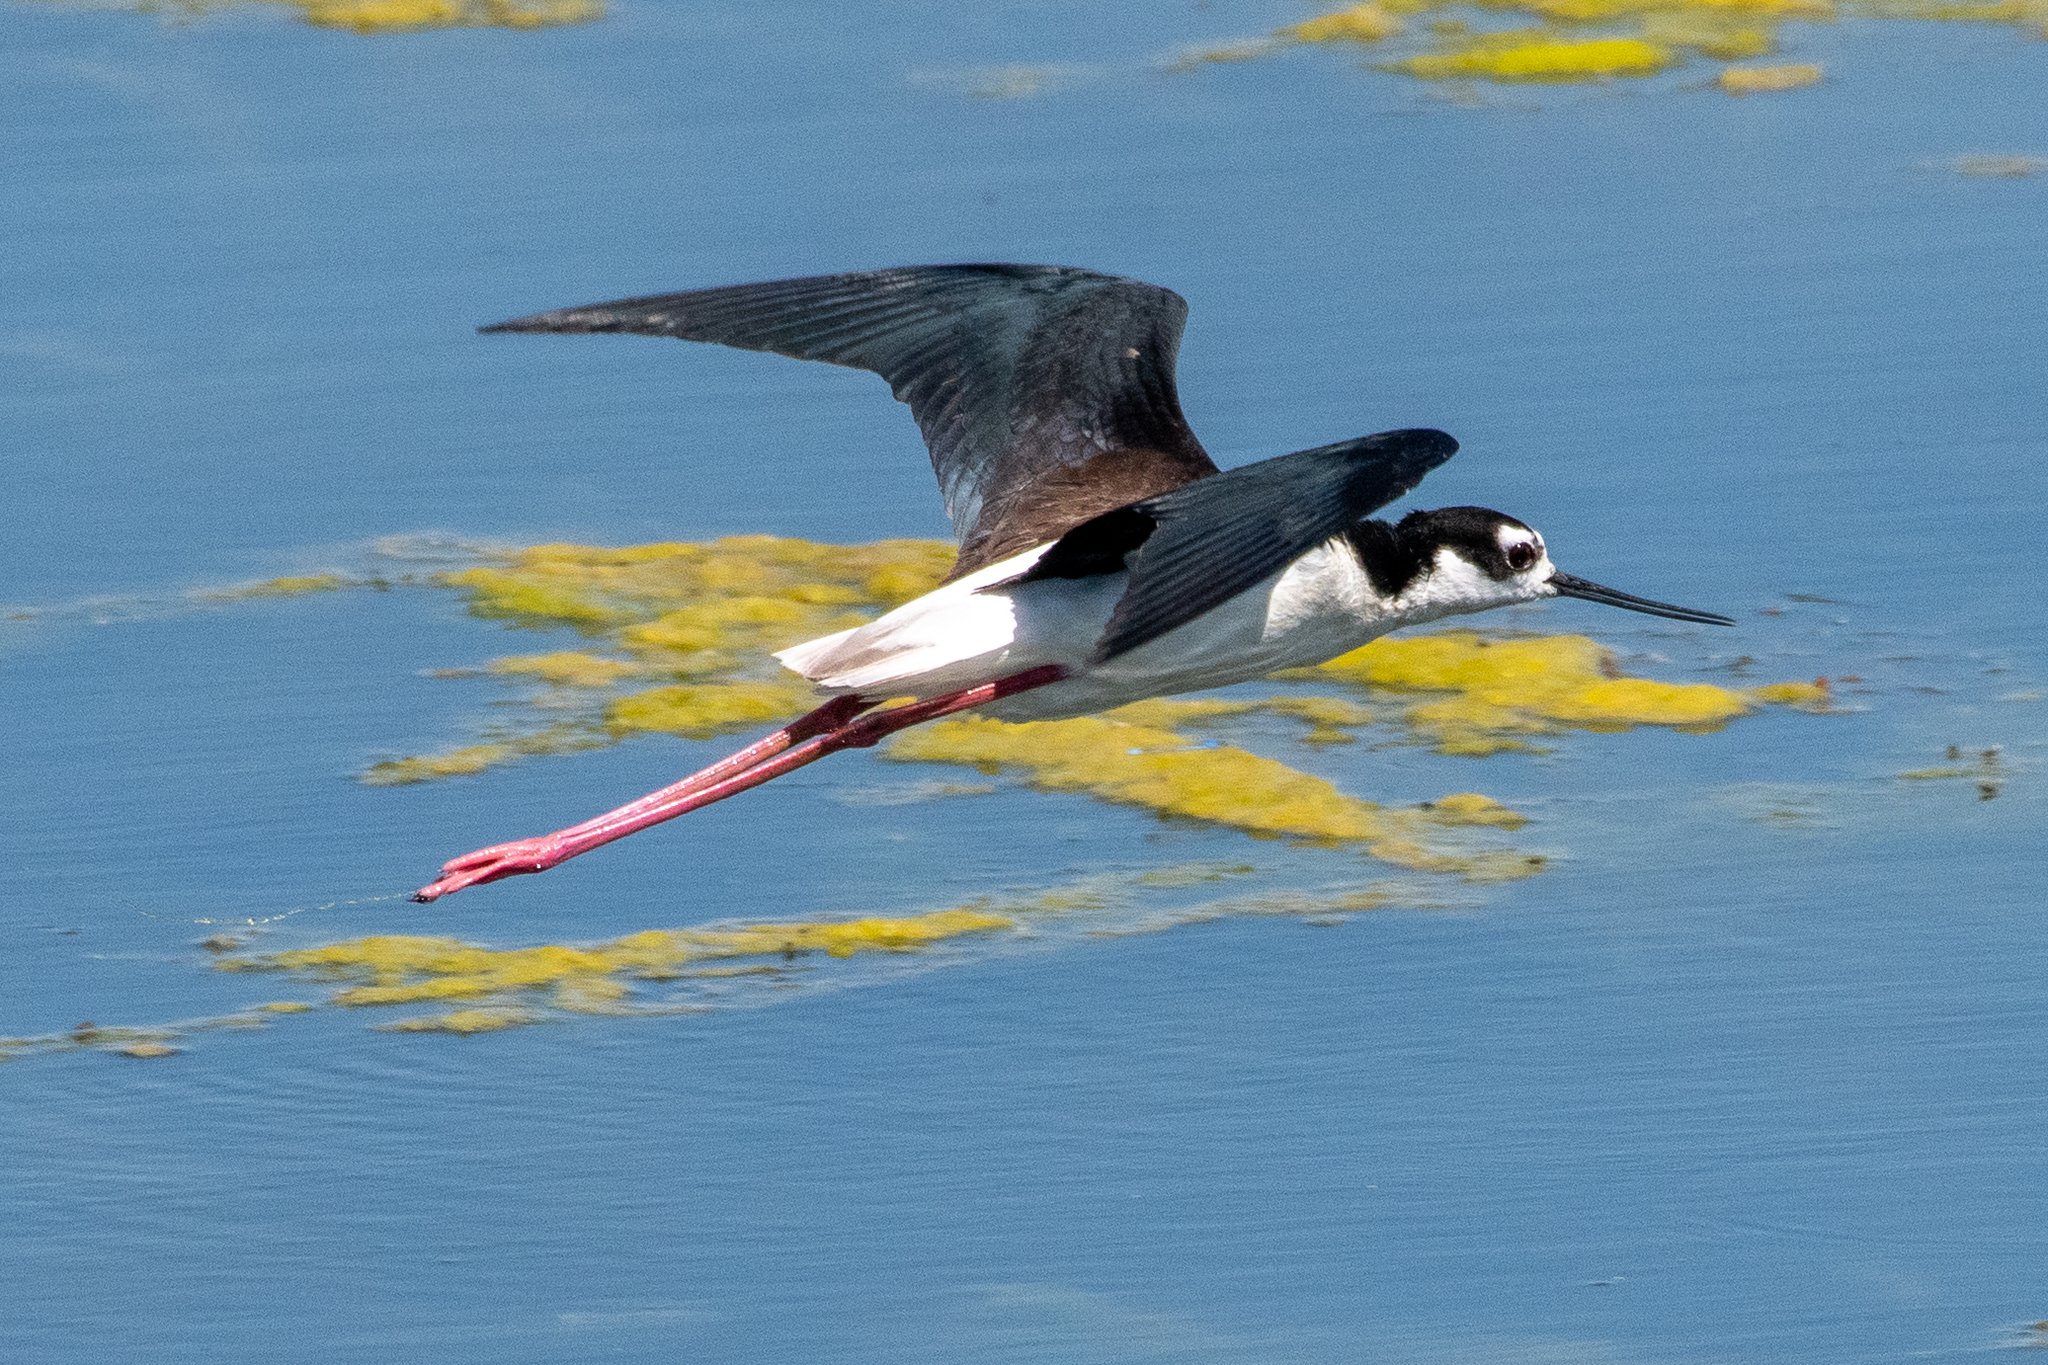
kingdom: Animalia
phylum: Chordata
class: Aves
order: Charadriiformes
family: Recurvirostridae
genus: Himantopus
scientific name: Himantopus mexicanus
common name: Black-necked stilt
